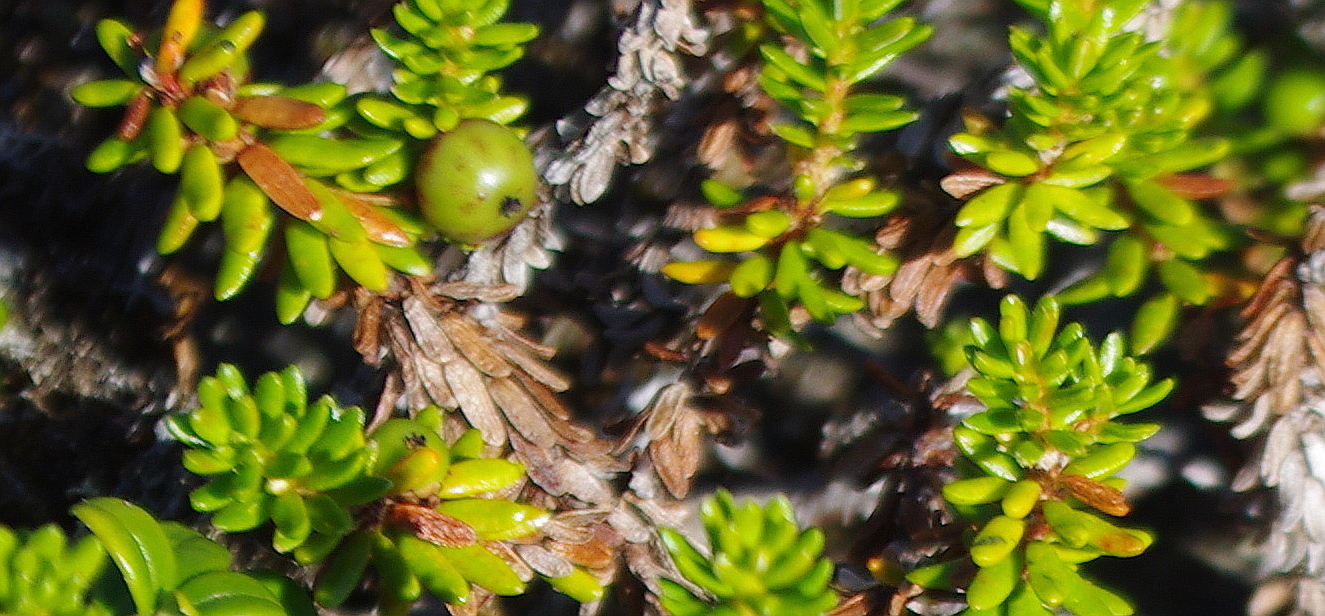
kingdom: Plantae
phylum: Tracheophyta
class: Magnoliopsida
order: Ericales
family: Ericaceae
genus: Empetrum
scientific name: Empetrum nigrum
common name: Black crowberry
